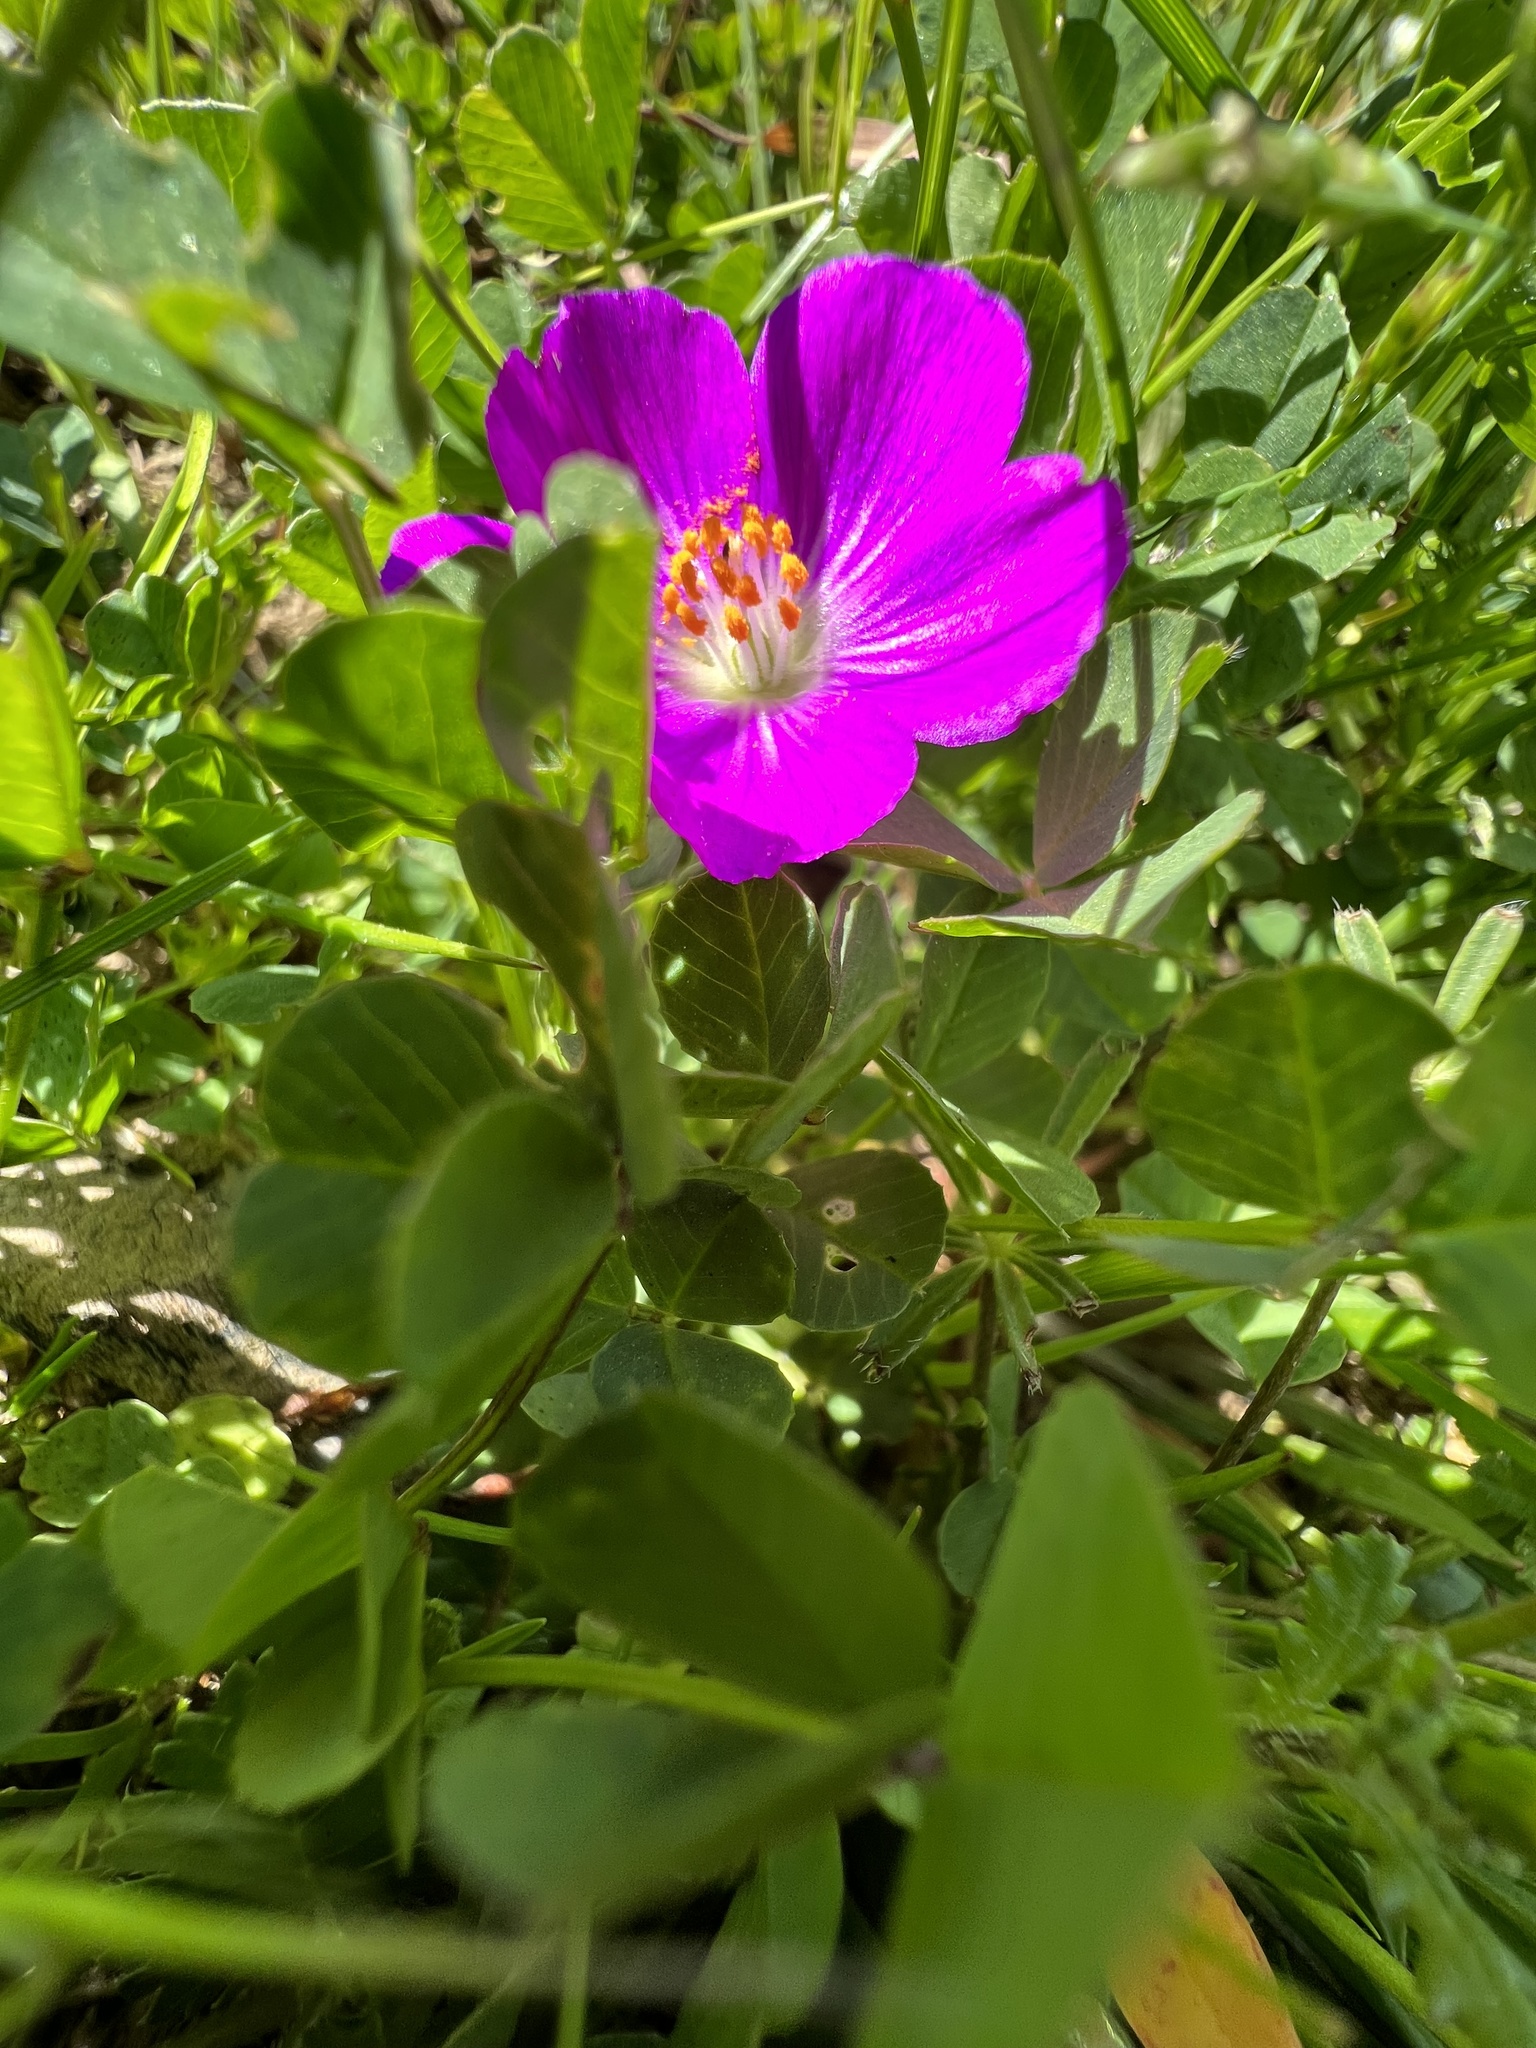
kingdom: Plantae
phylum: Tracheophyta
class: Magnoliopsida
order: Caryophyllales
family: Montiaceae
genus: Calandrinia
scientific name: Calandrinia menziesii
